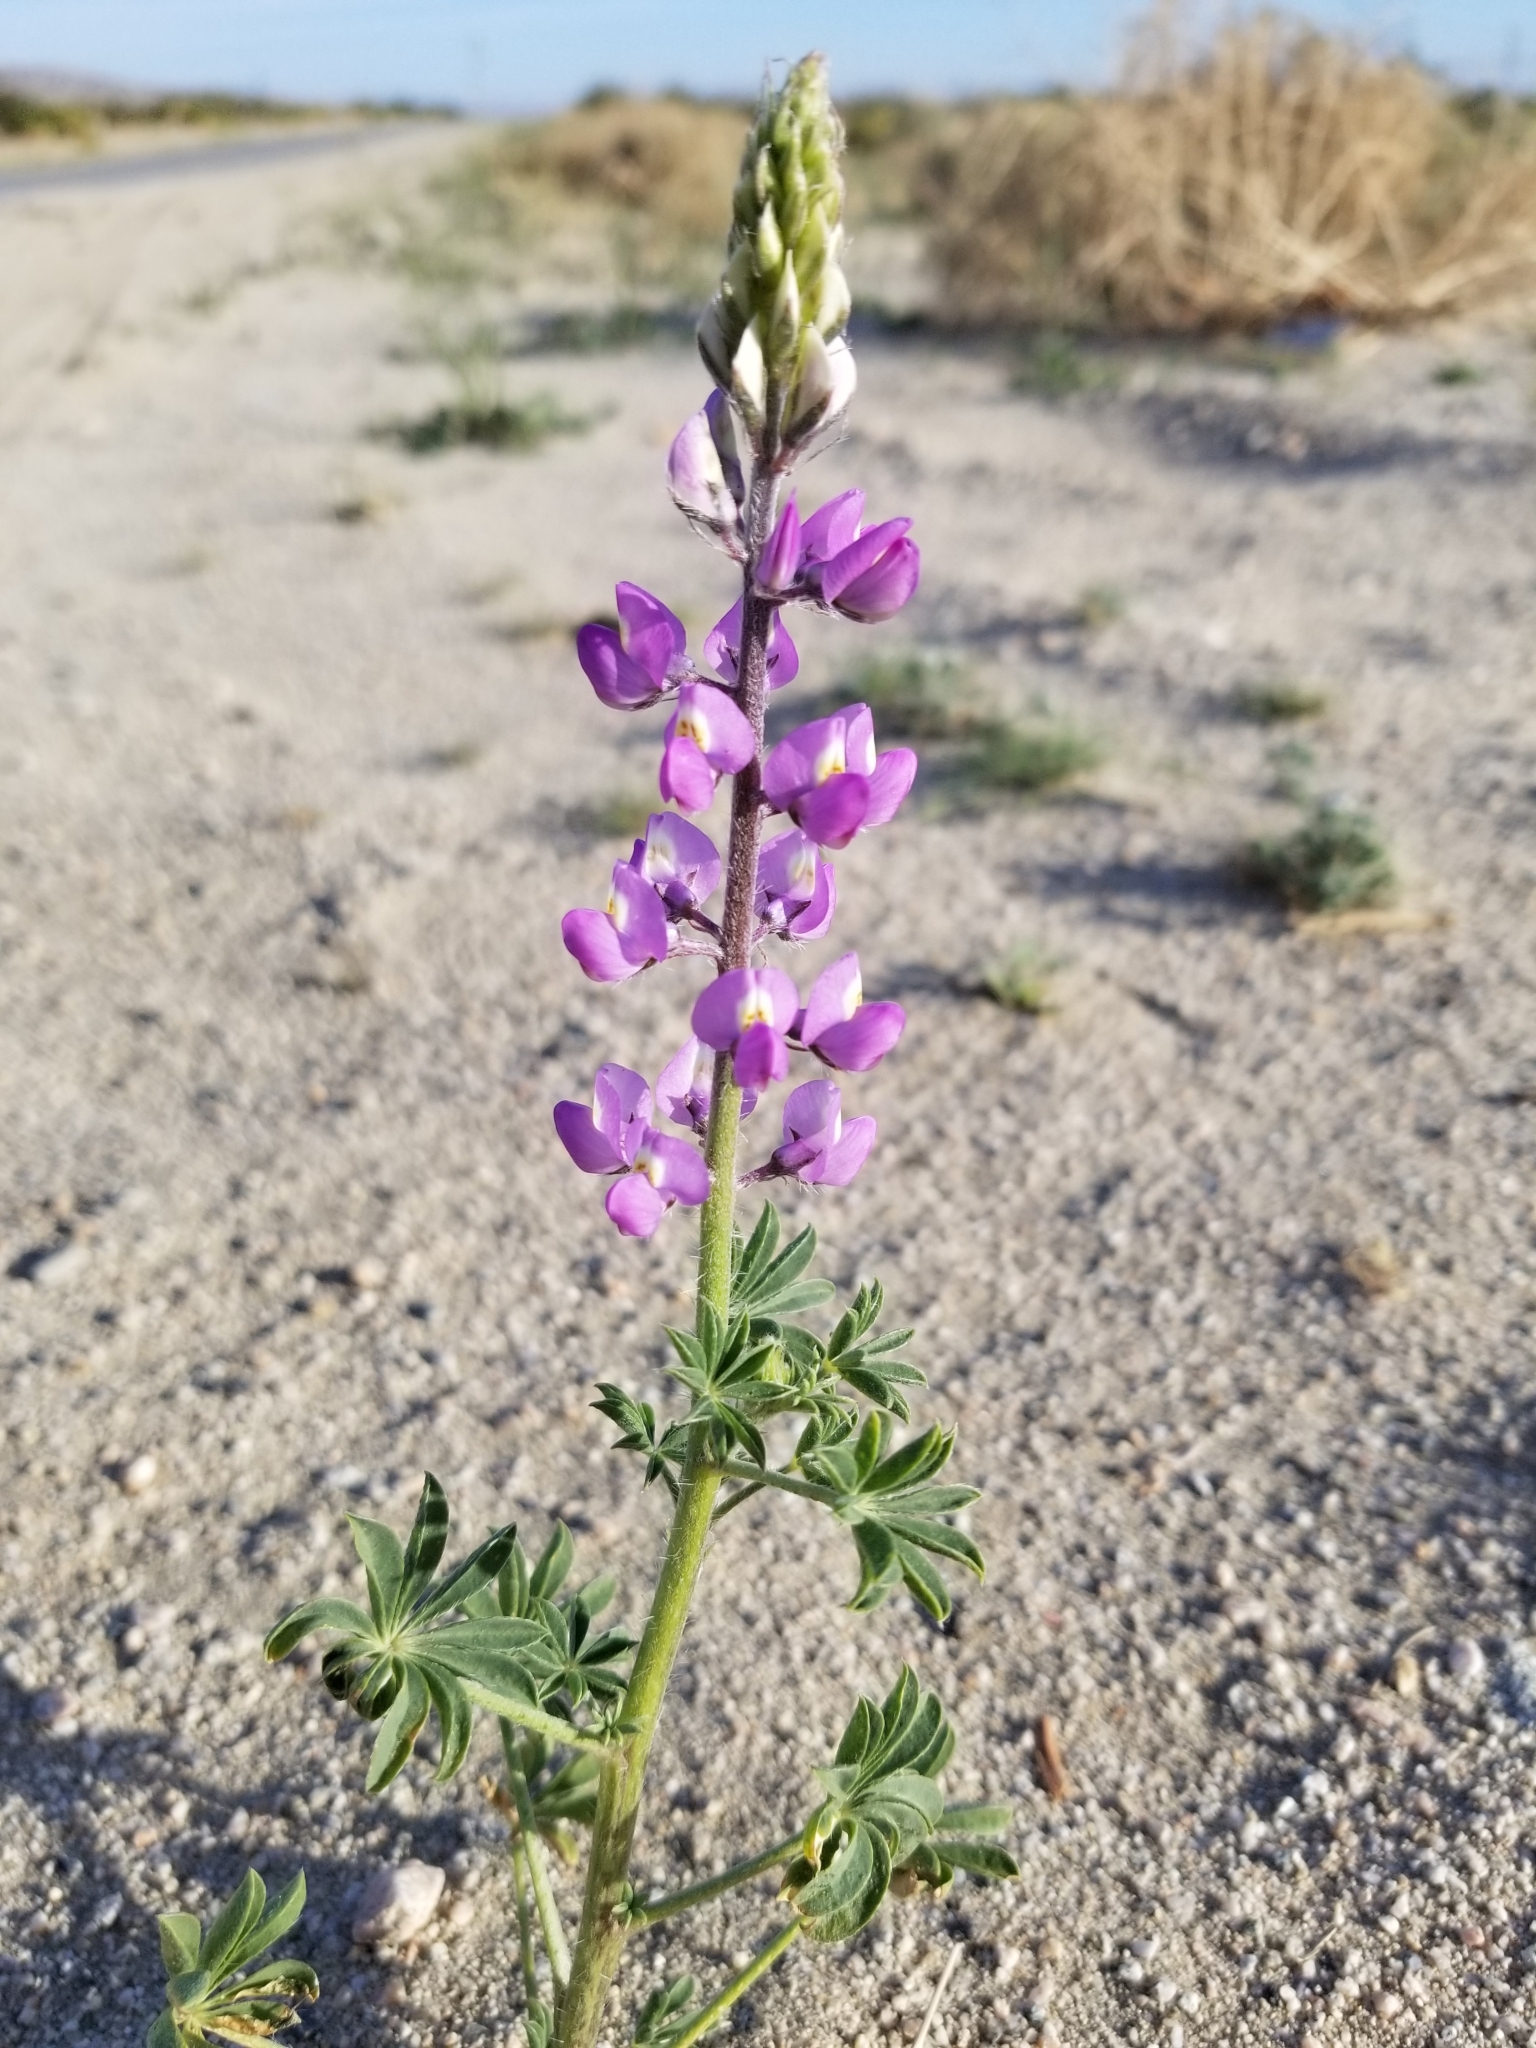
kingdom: Plantae
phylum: Tracheophyta
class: Magnoliopsida
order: Fabales
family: Fabaceae
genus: Lupinus
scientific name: Lupinus arizonicus
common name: Arizona lupine
